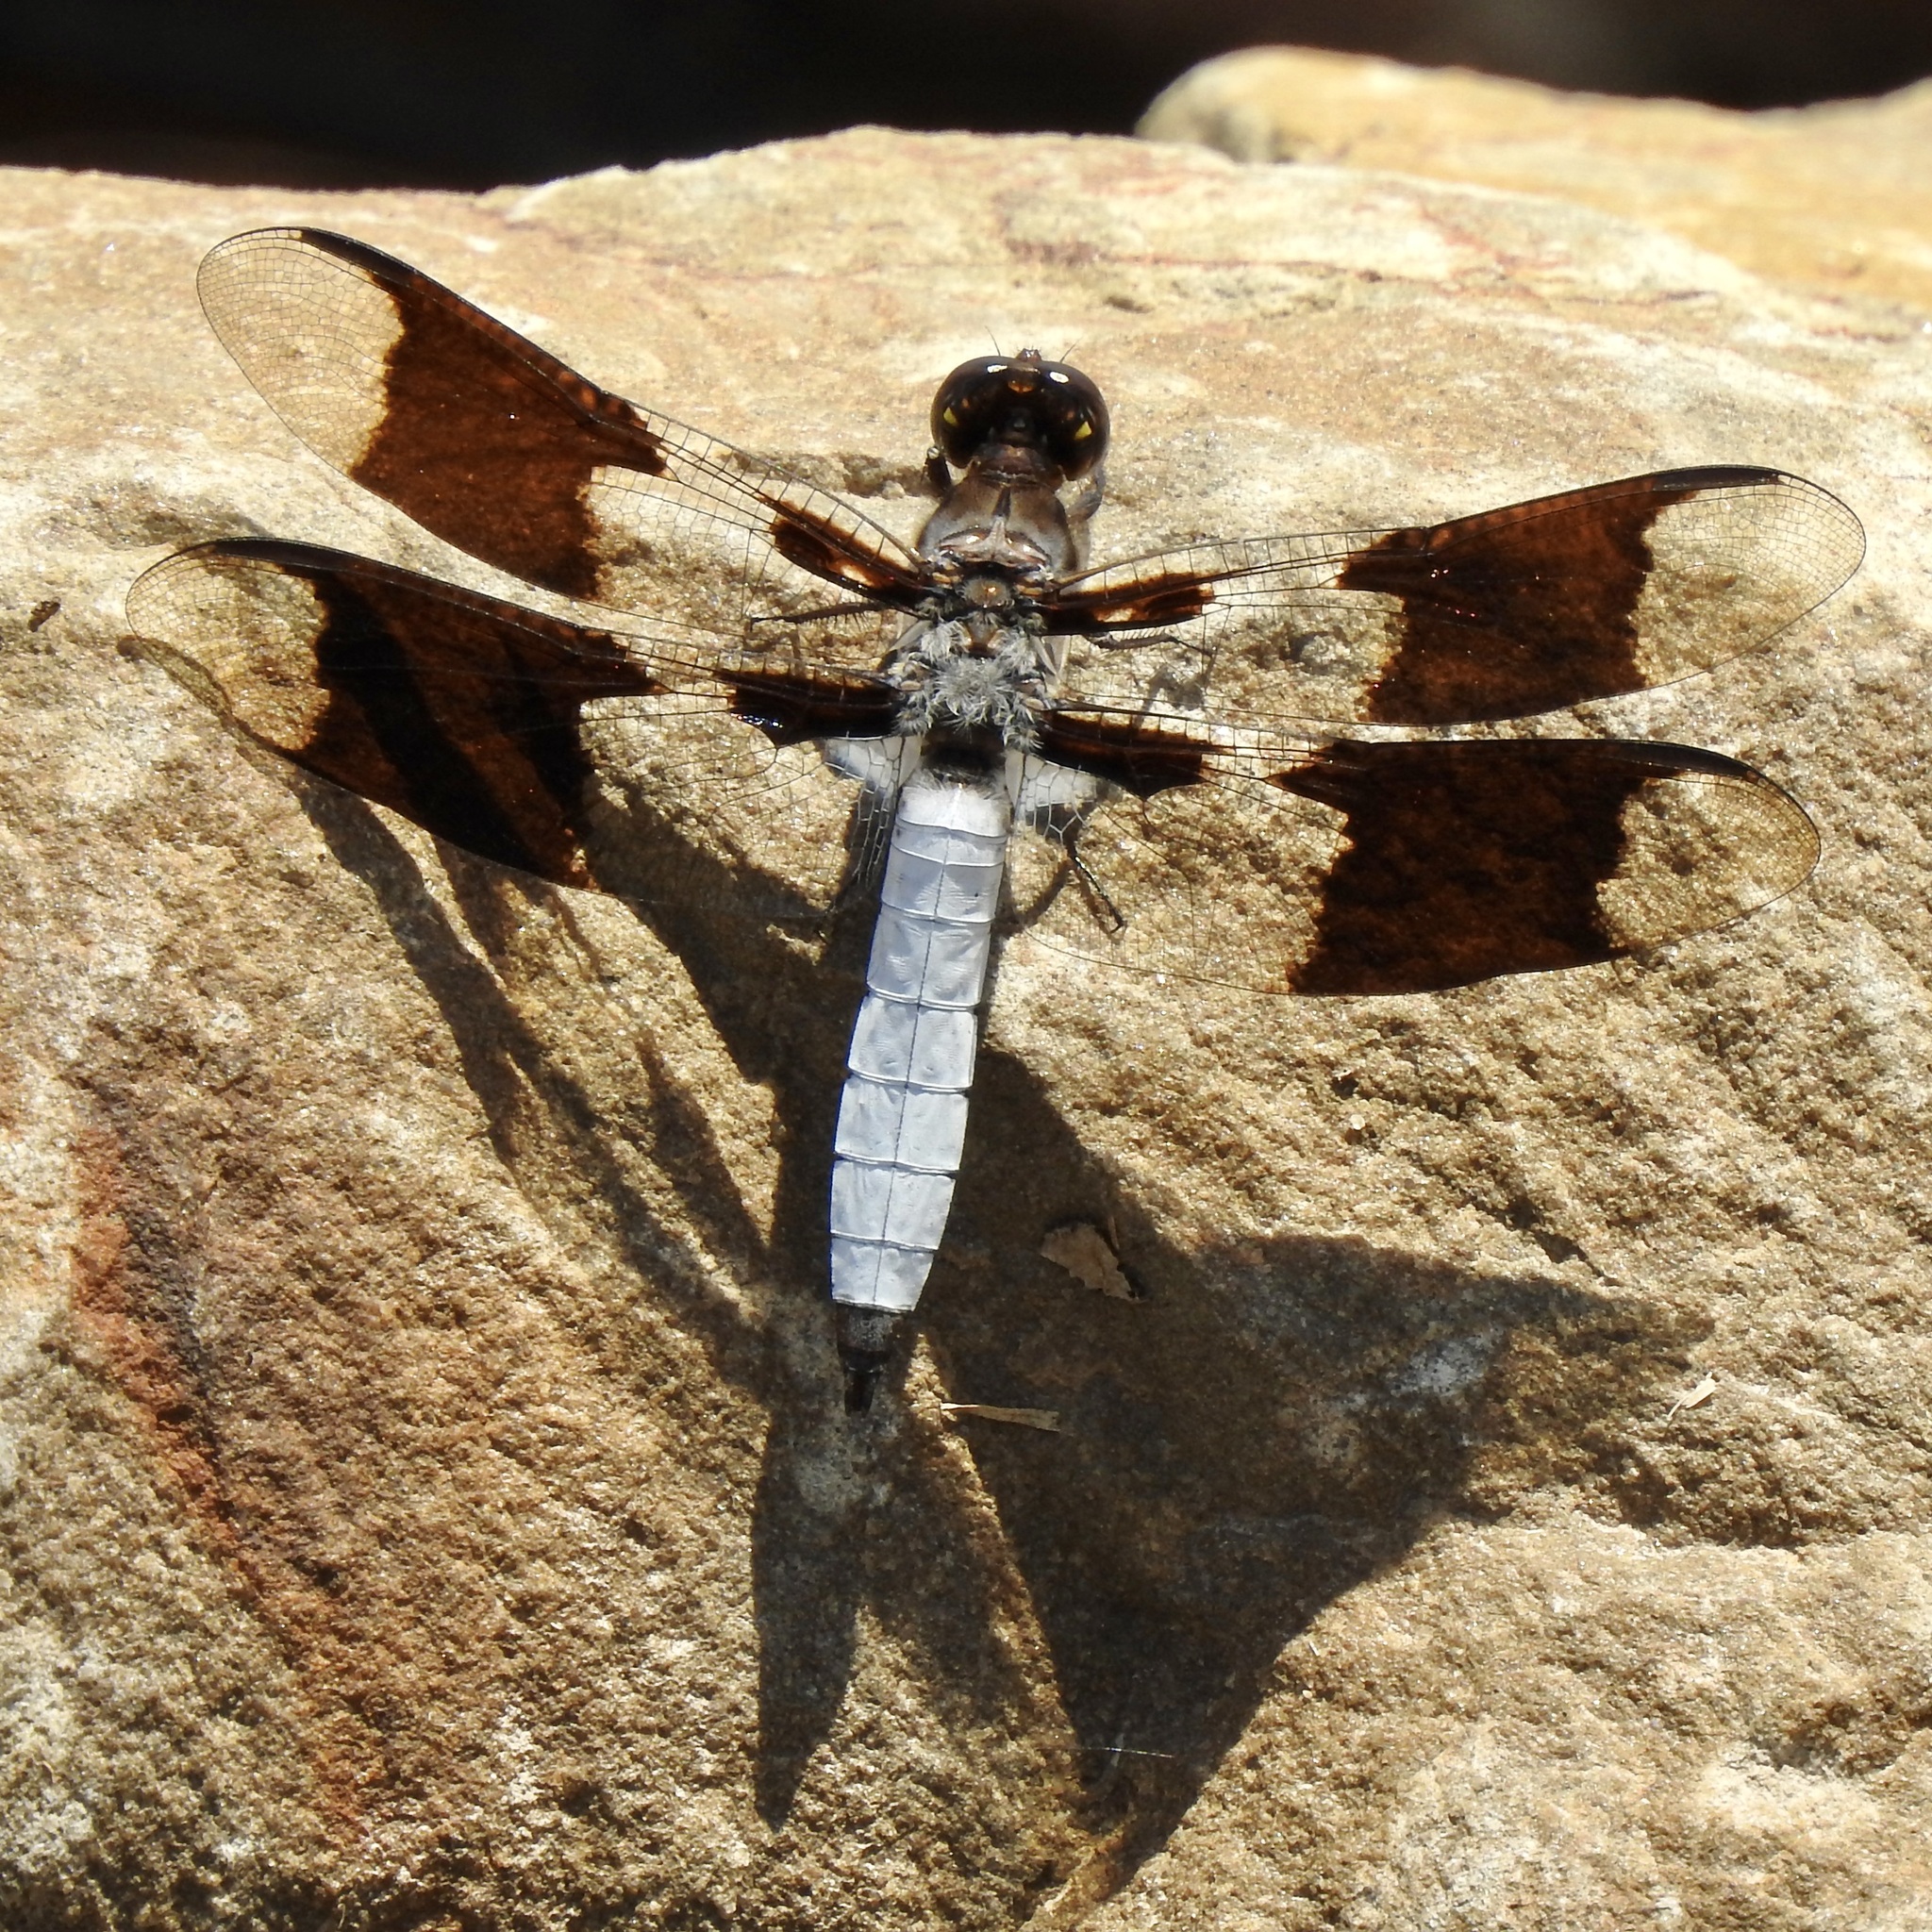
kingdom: Animalia
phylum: Arthropoda
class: Insecta
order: Odonata
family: Libellulidae
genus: Plathemis
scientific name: Plathemis lydia
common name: Common whitetail
